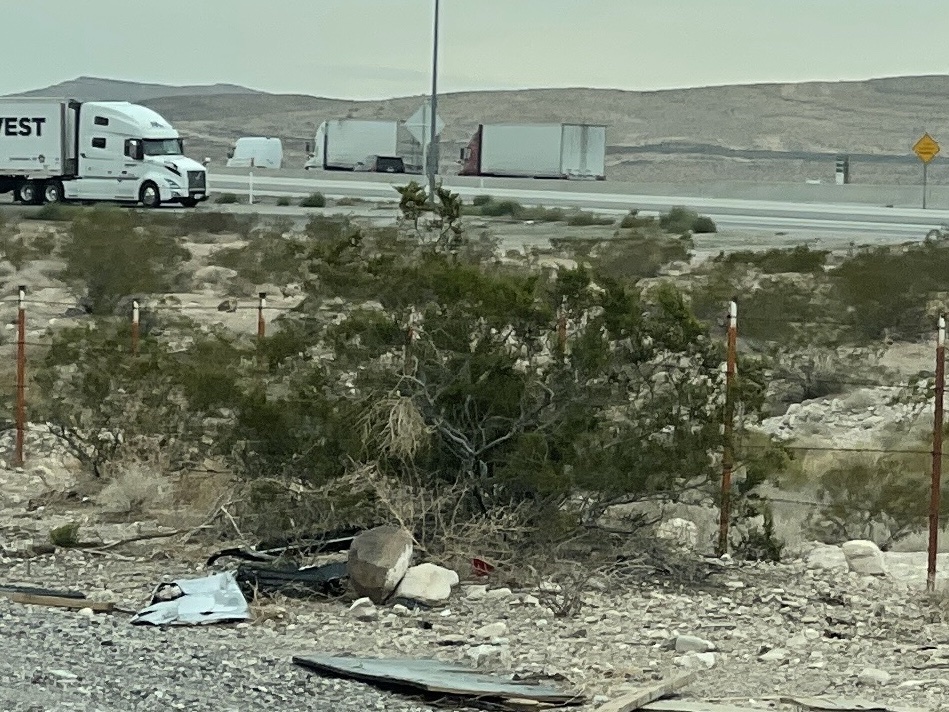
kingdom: Plantae
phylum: Tracheophyta
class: Magnoliopsida
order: Zygophyllales
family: Zygophyllaceae
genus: Larrea
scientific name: Larrea tridentata
